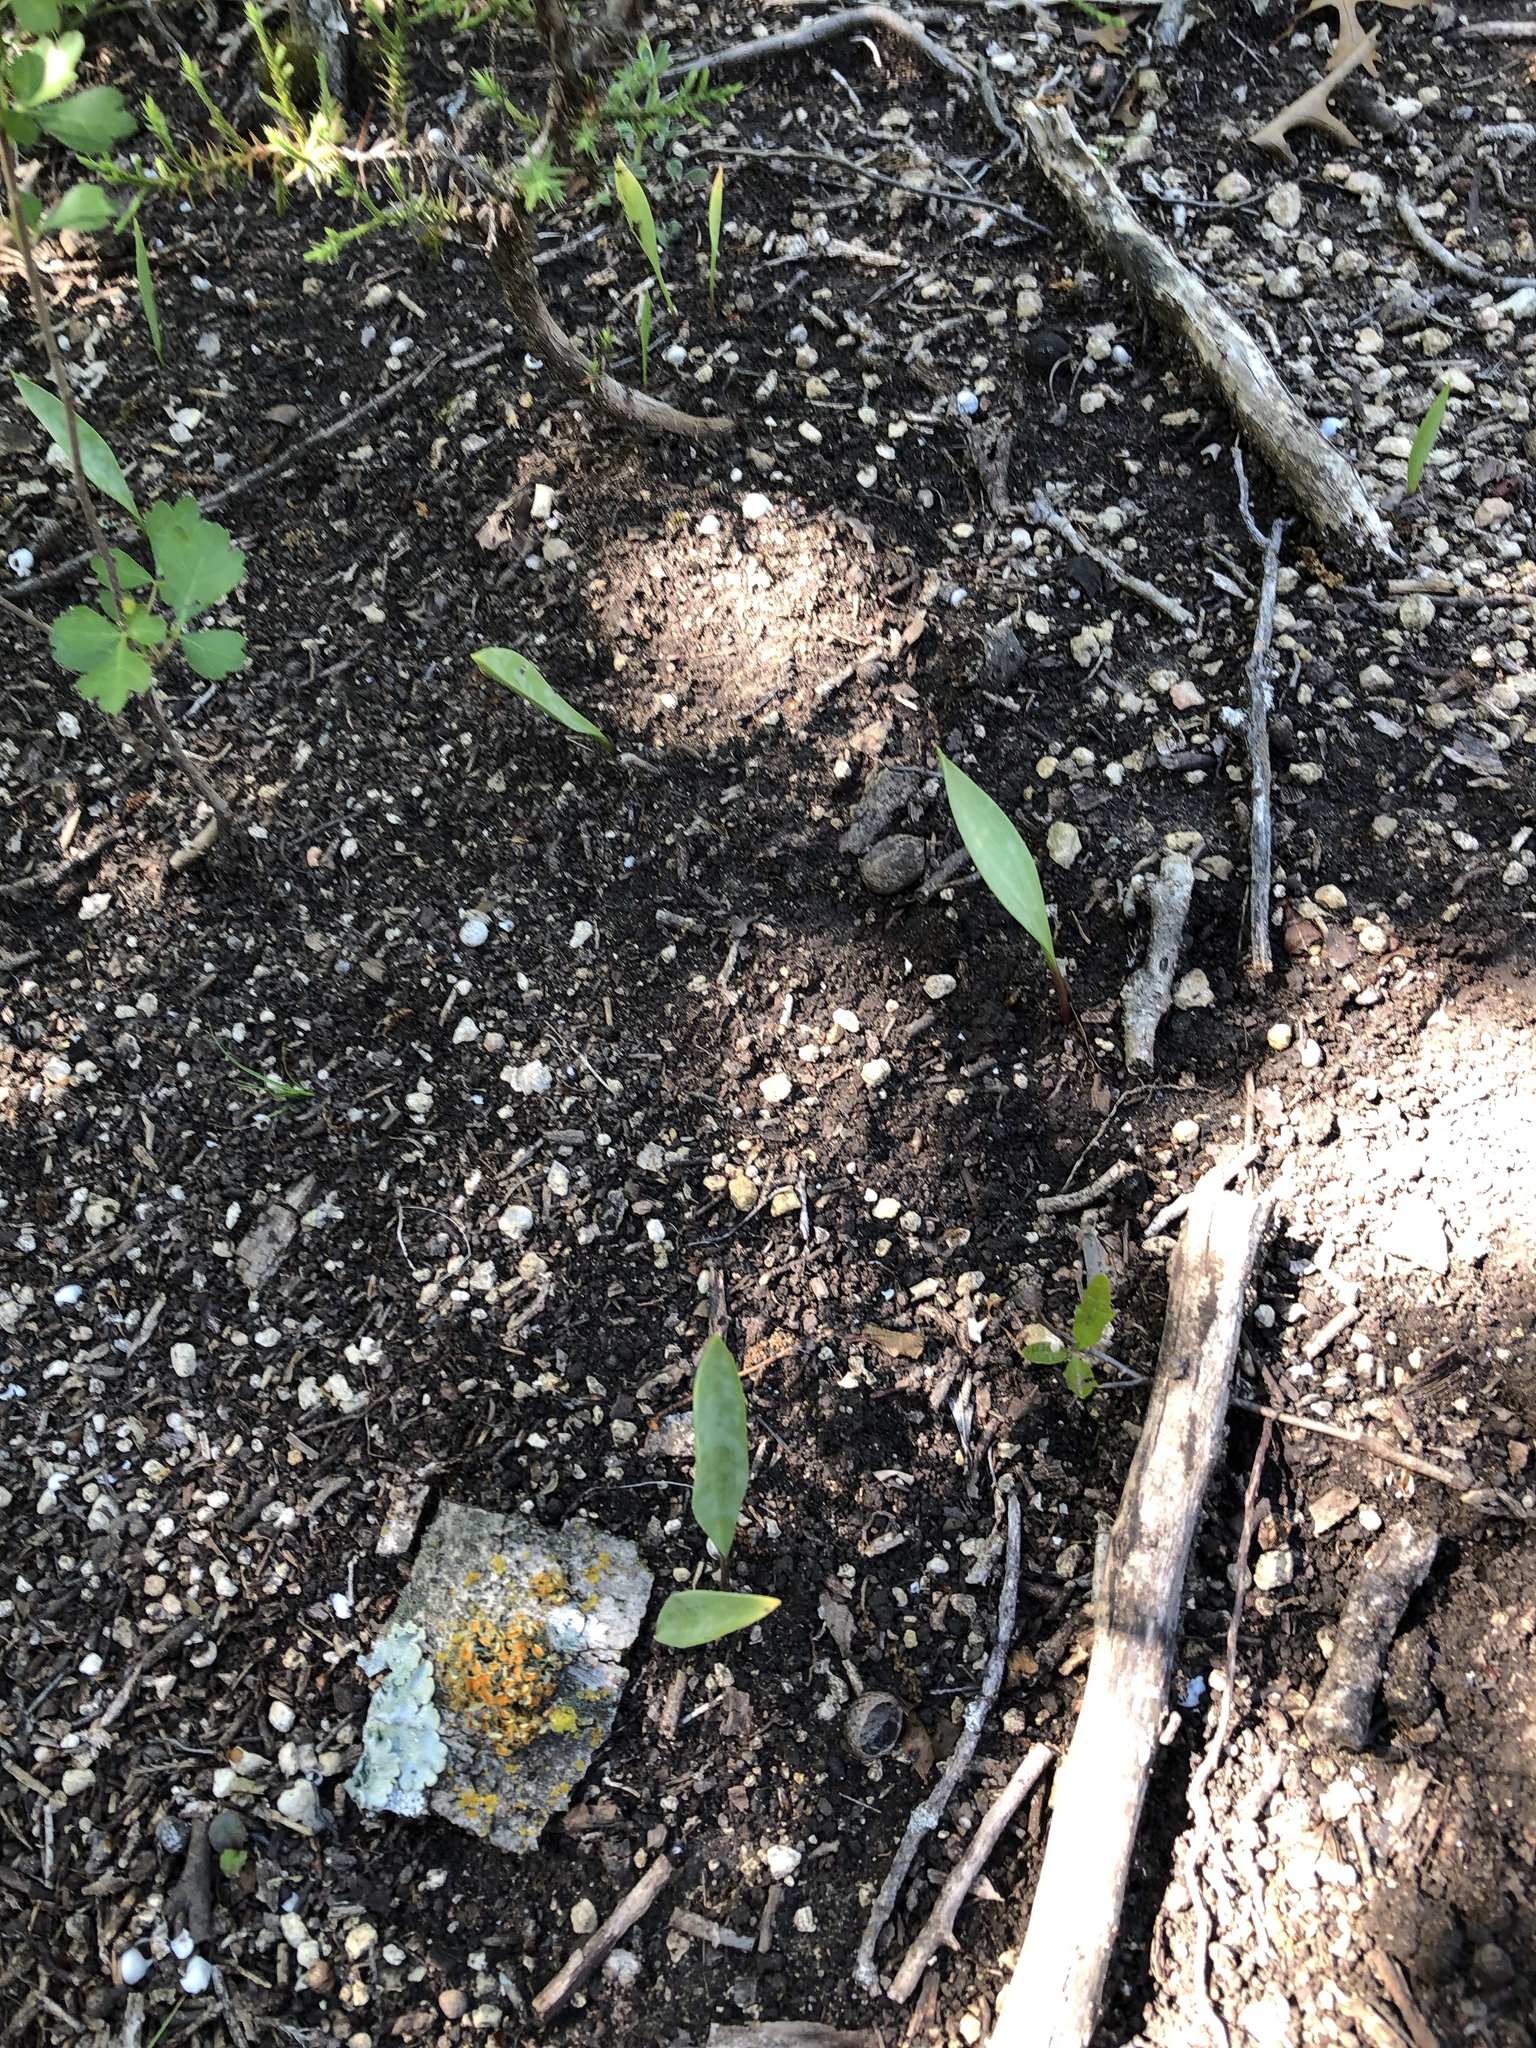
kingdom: Plantae
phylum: Tracheophyta
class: Liliopsida
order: Liliales
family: Liliaceae
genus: Erythronium
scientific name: Erythronium albidum
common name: White trout-lily
